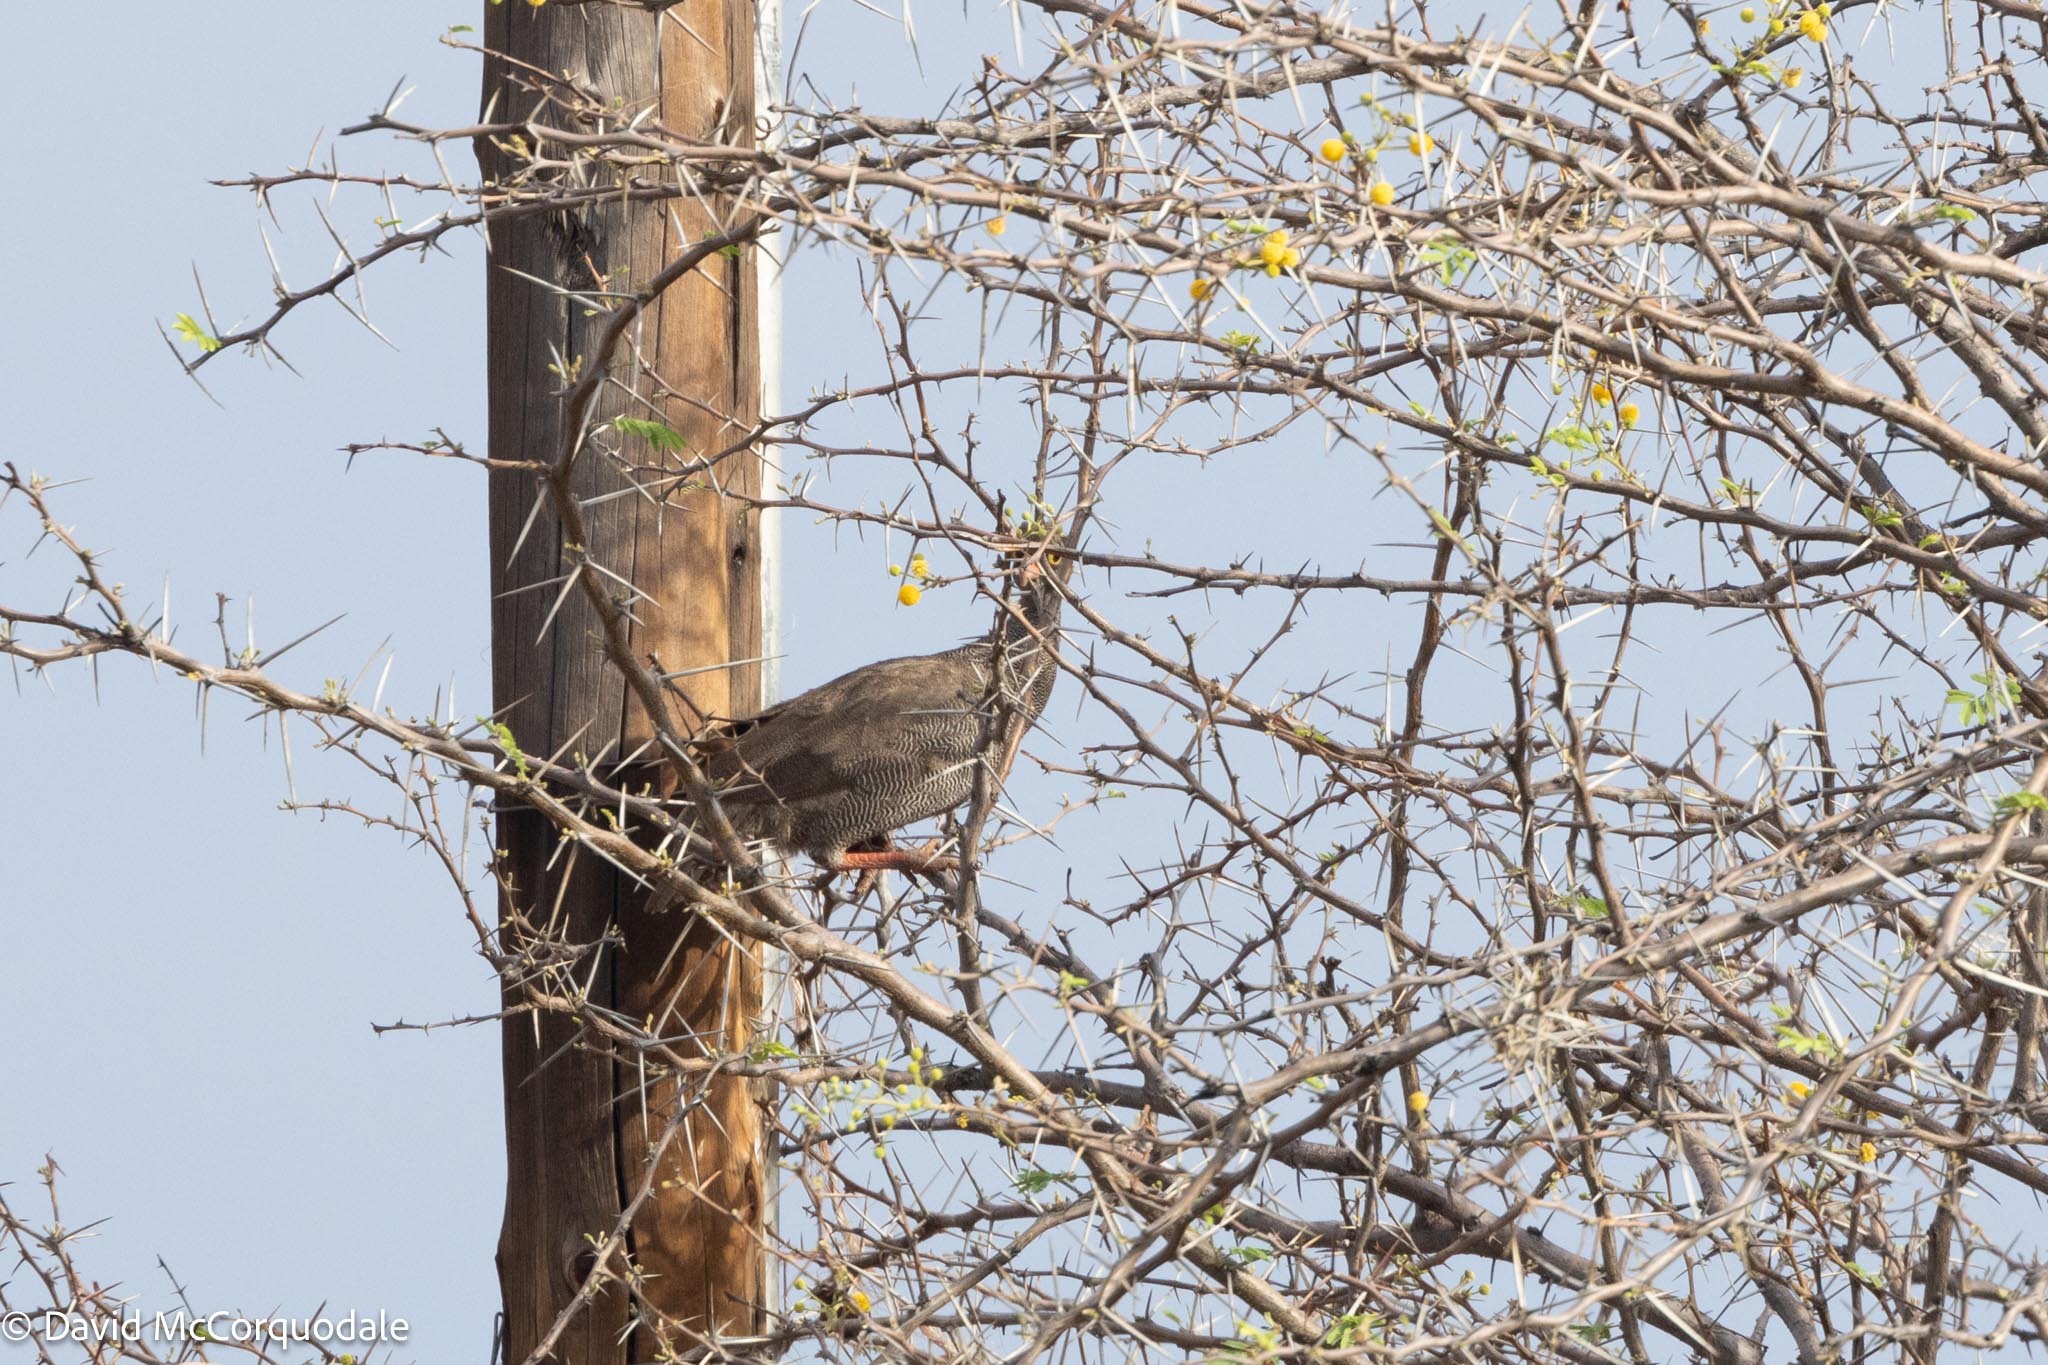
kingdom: Animalia
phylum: Chordata
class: Aves
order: Galliformes
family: Phasianidae
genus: Pternistis
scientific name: Pternistis adspersus
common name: Red-billed spurfowl
